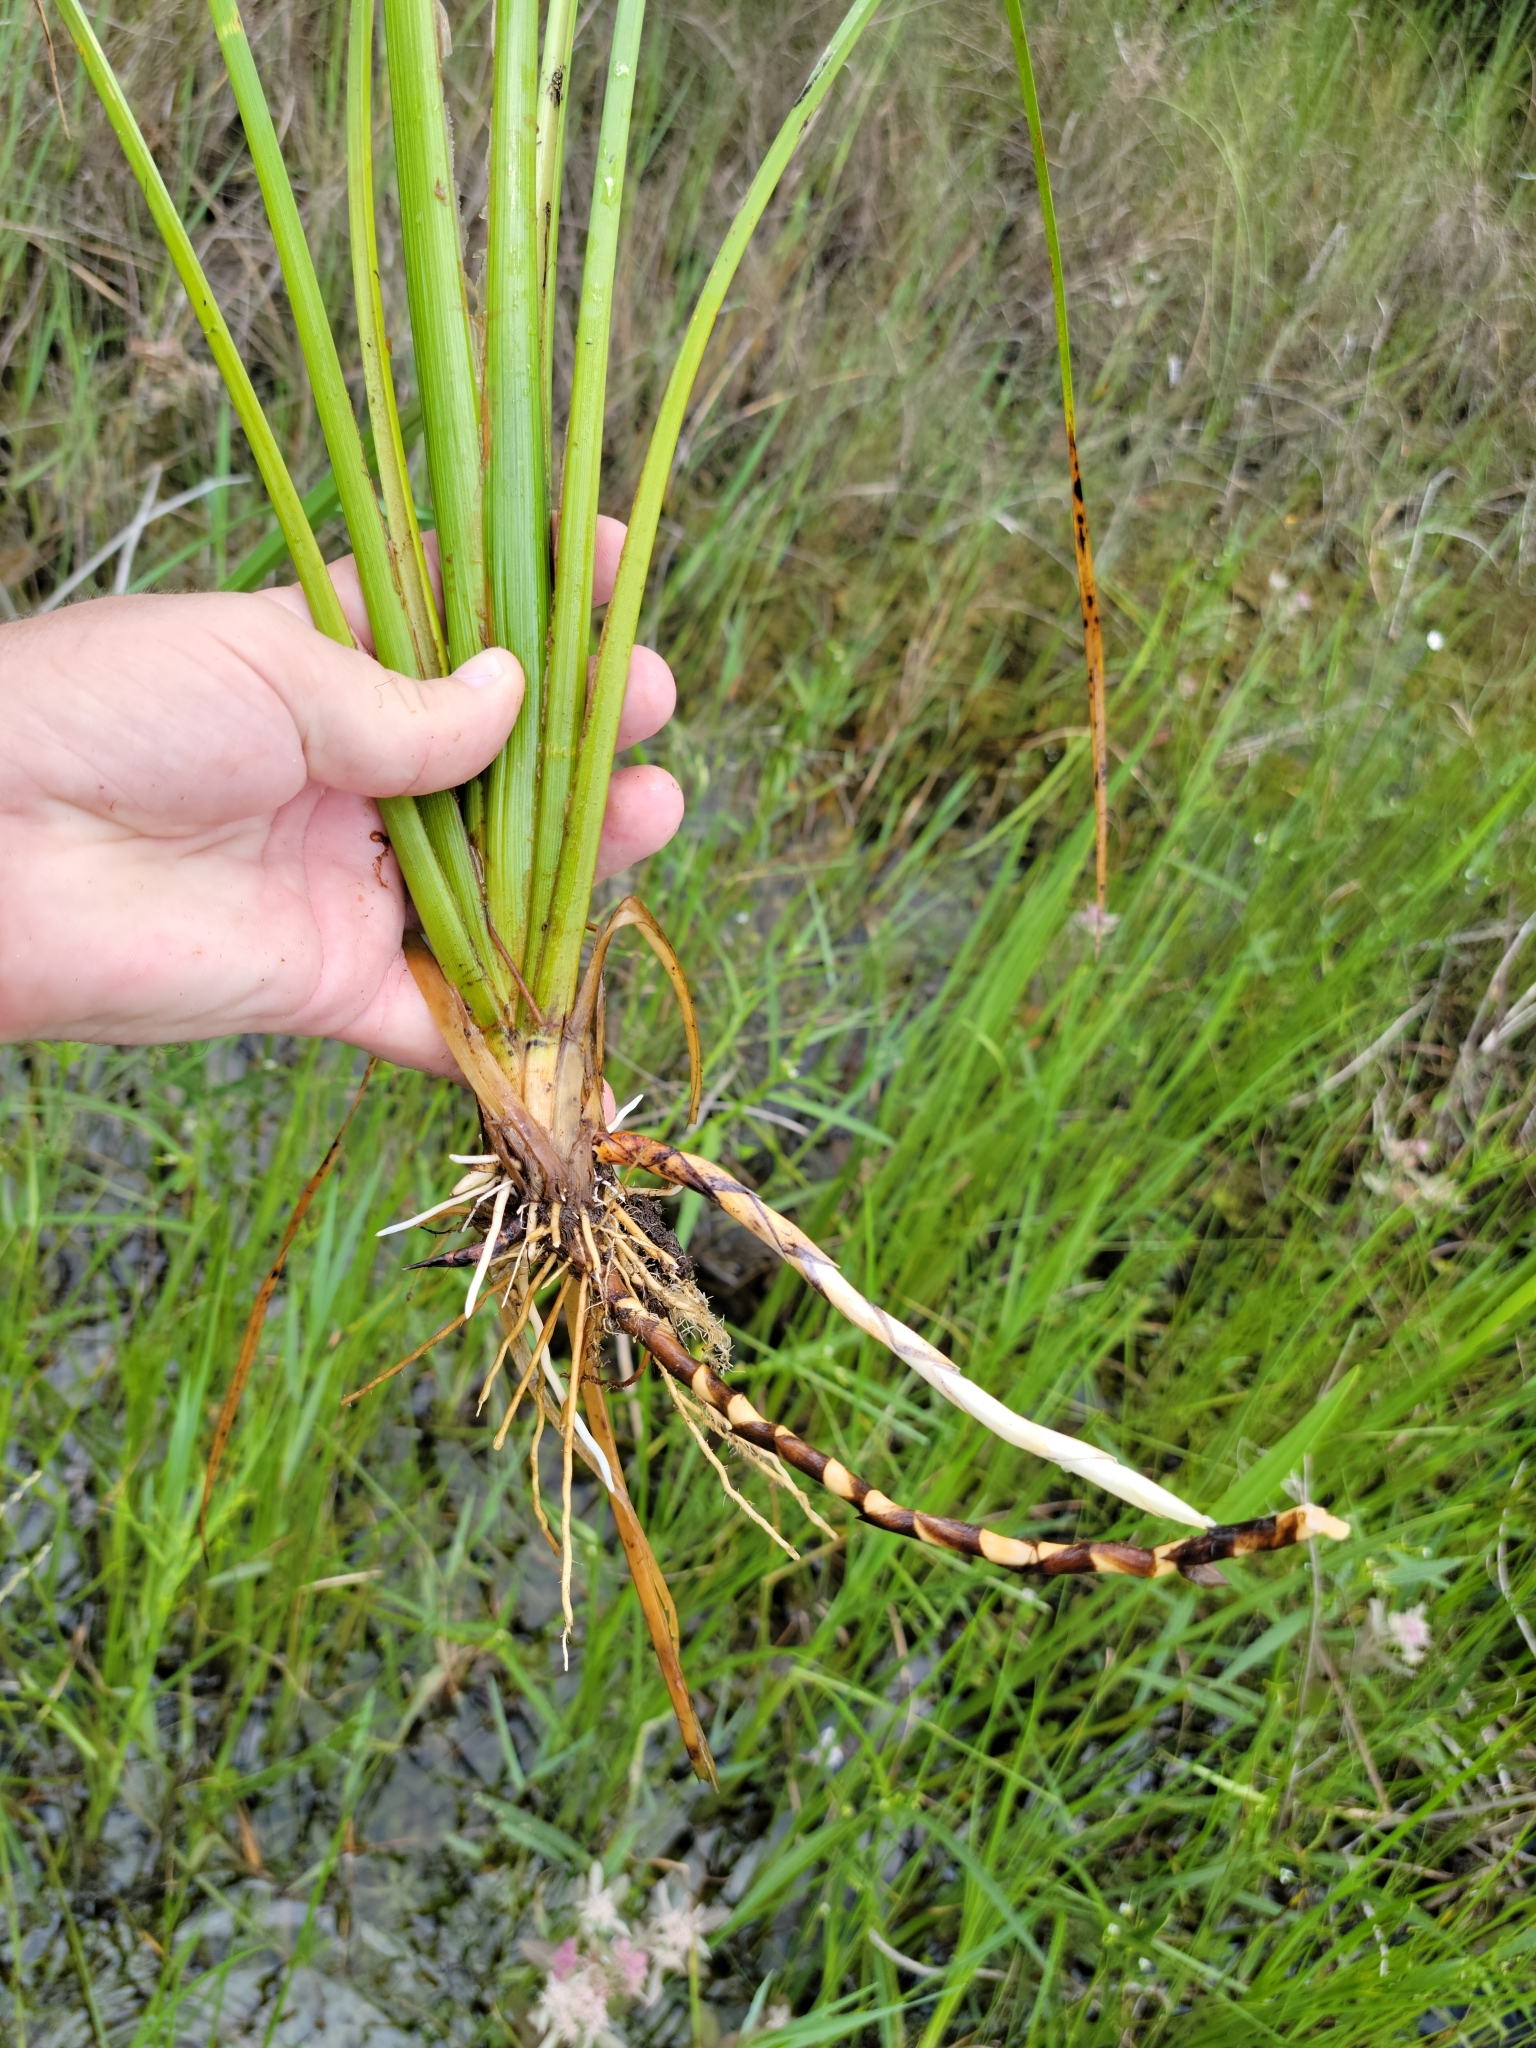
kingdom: Plantae
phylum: Tracheophyta
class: Liliopsida
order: Poales
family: Cyperaceae
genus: Rhynchospora
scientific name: Rhynchospora inundata
